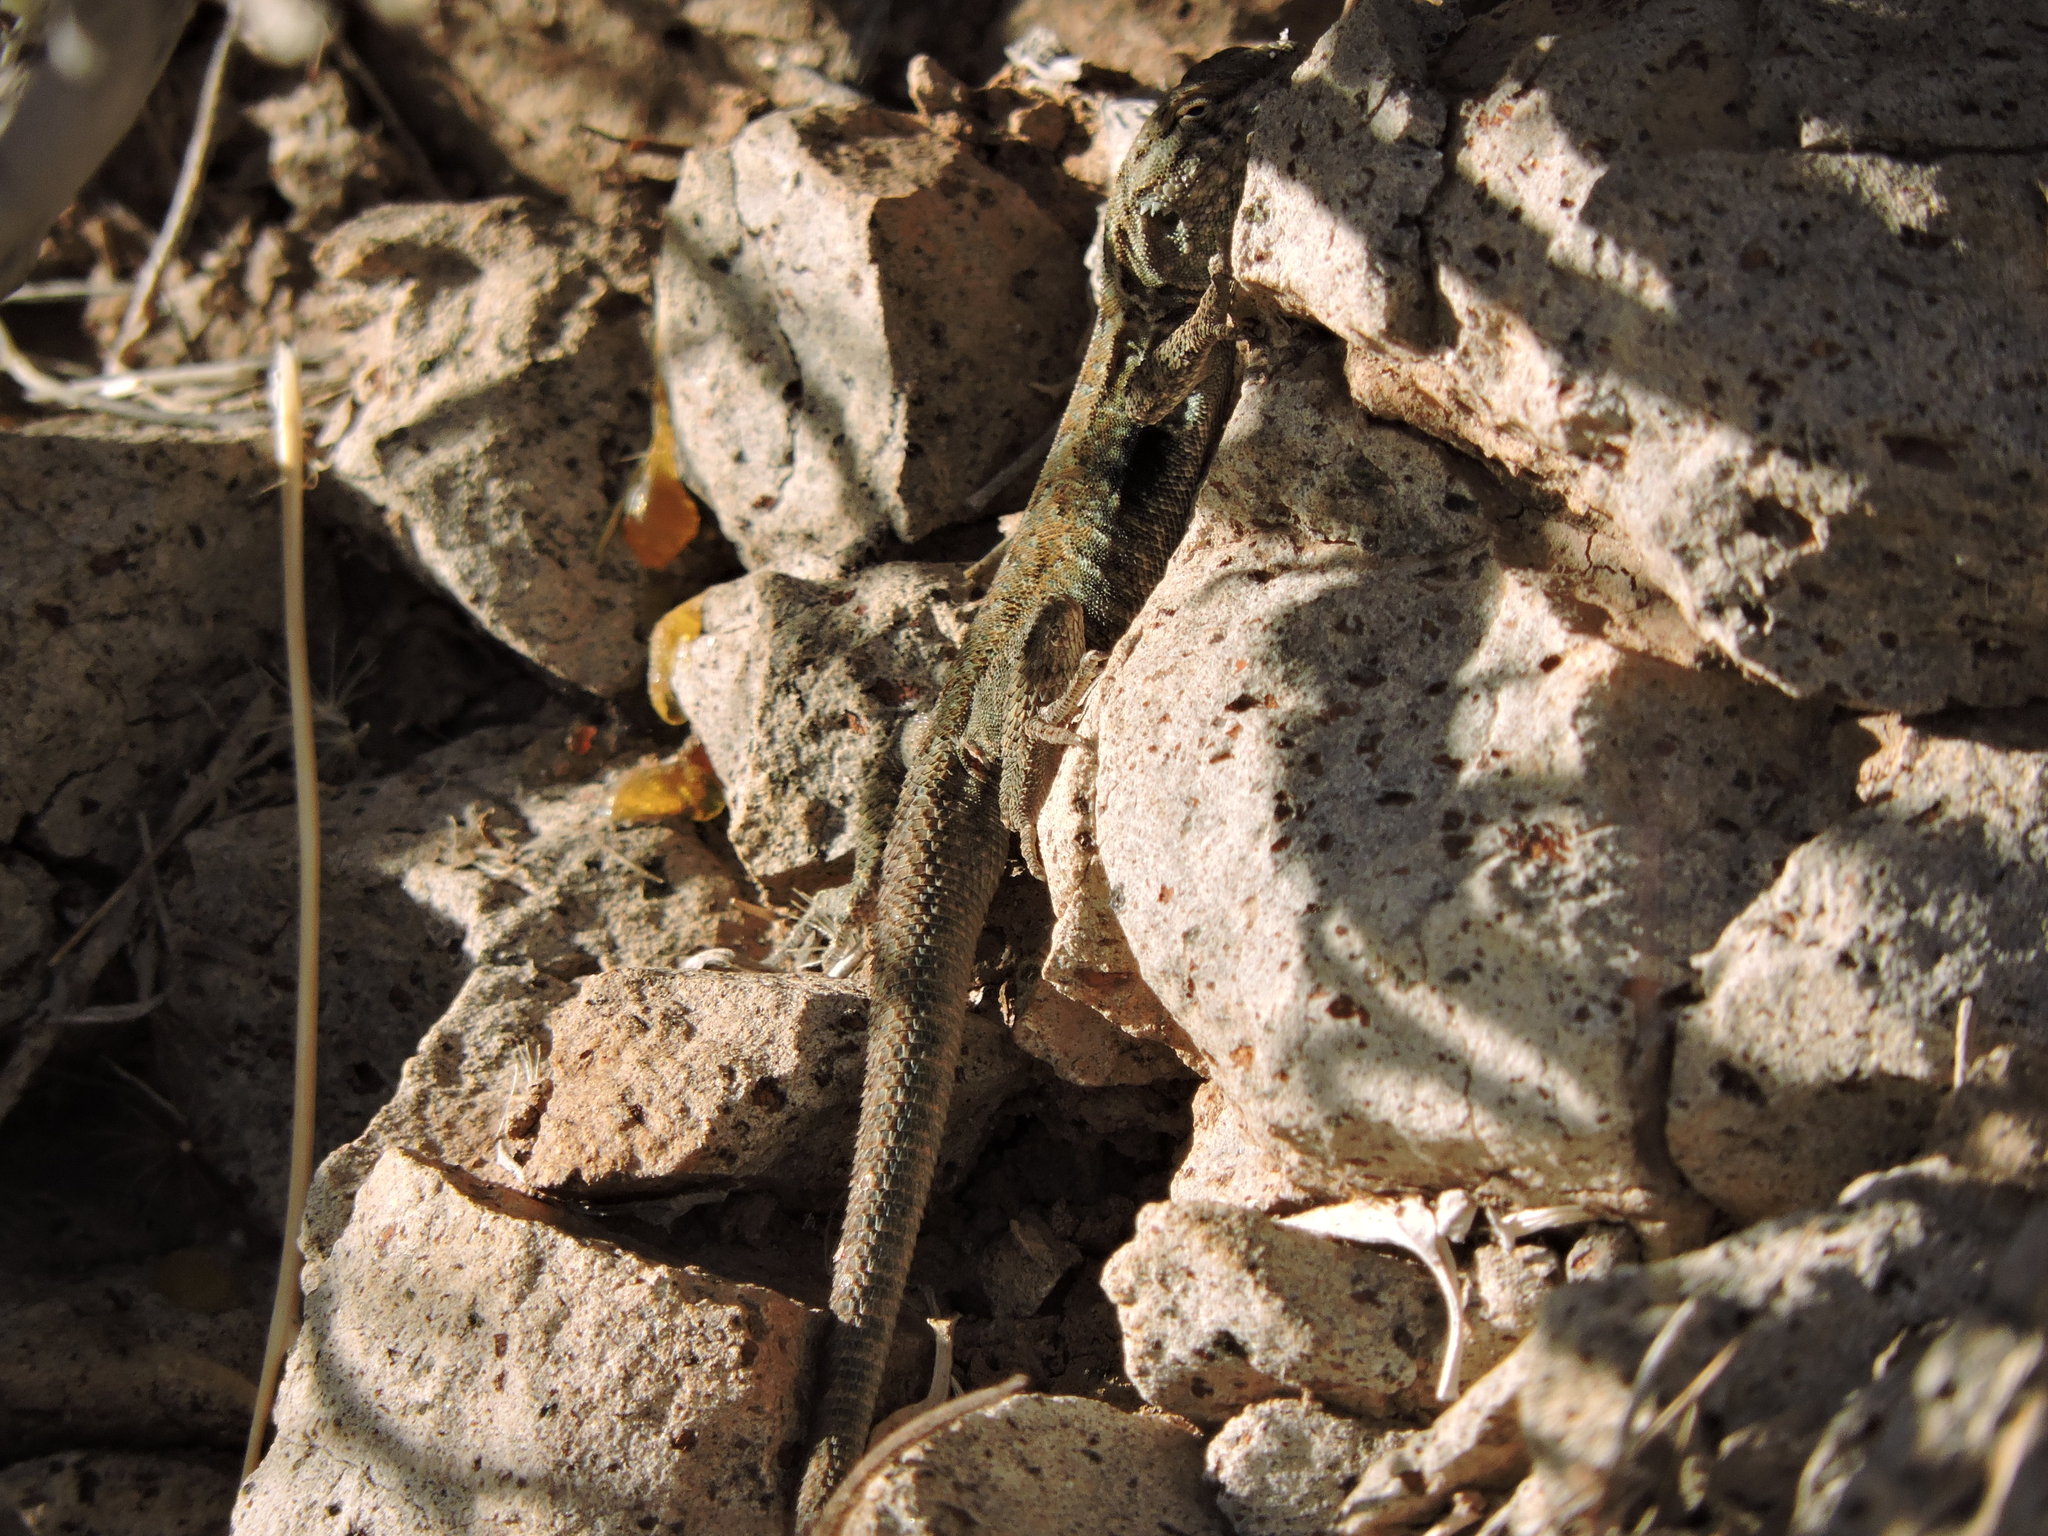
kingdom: Animalia
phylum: Chordata
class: Squamata
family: Phrynosomatidae
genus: Uta
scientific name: Uta stansburiana
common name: Side-blotched lizard
